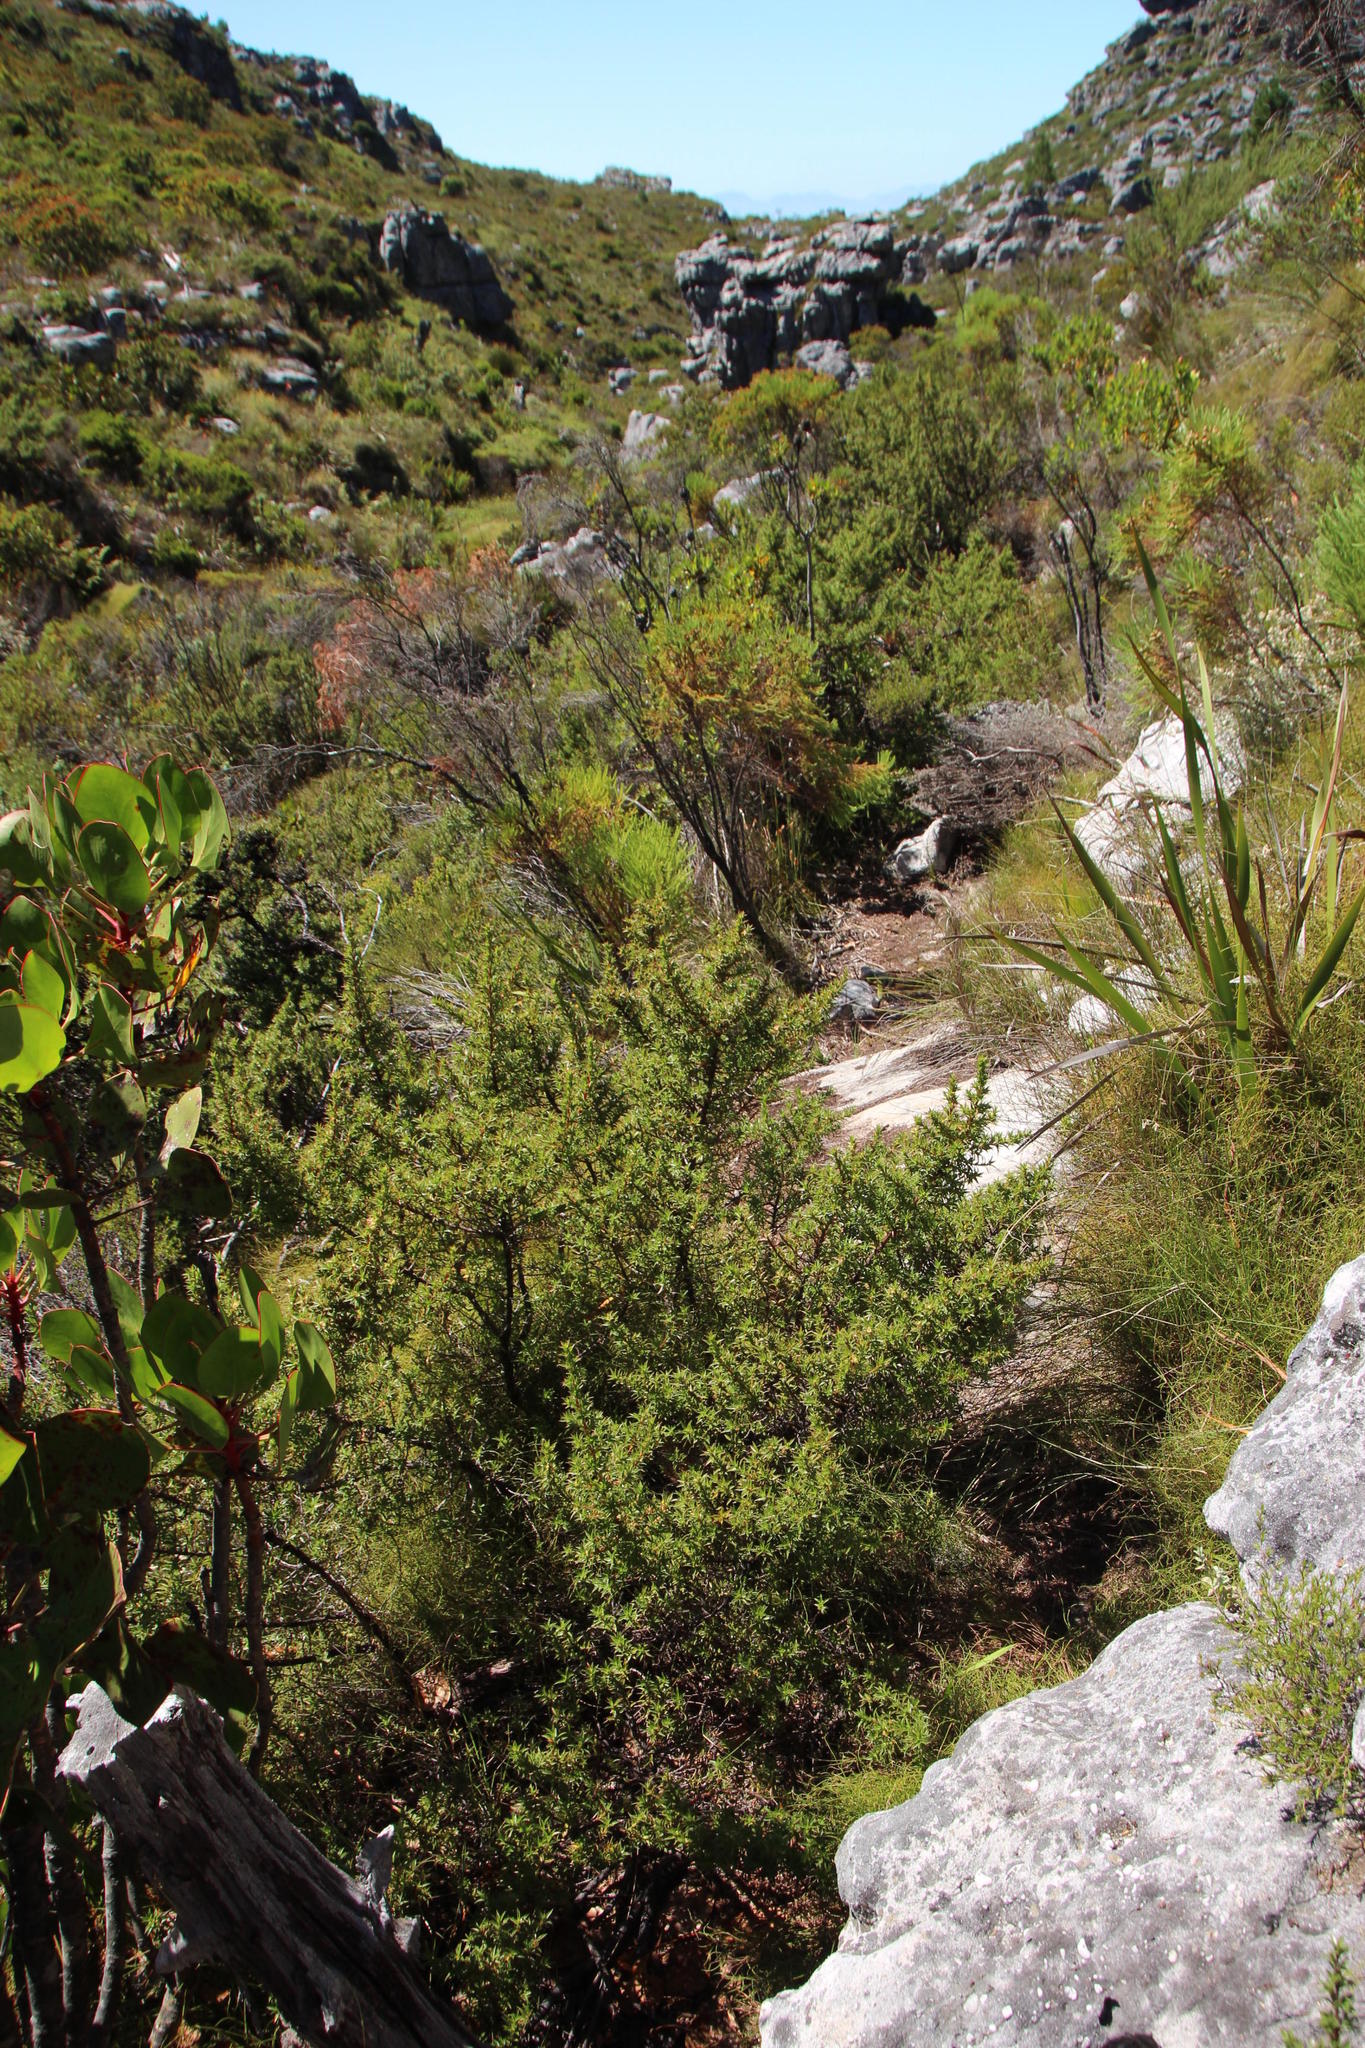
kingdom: Plantae
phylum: Tracheophyta
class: Magnoliopsida
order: Rosales
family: Rosaceae
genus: Cliffortia
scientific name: Cliffortia theodori-friesii
